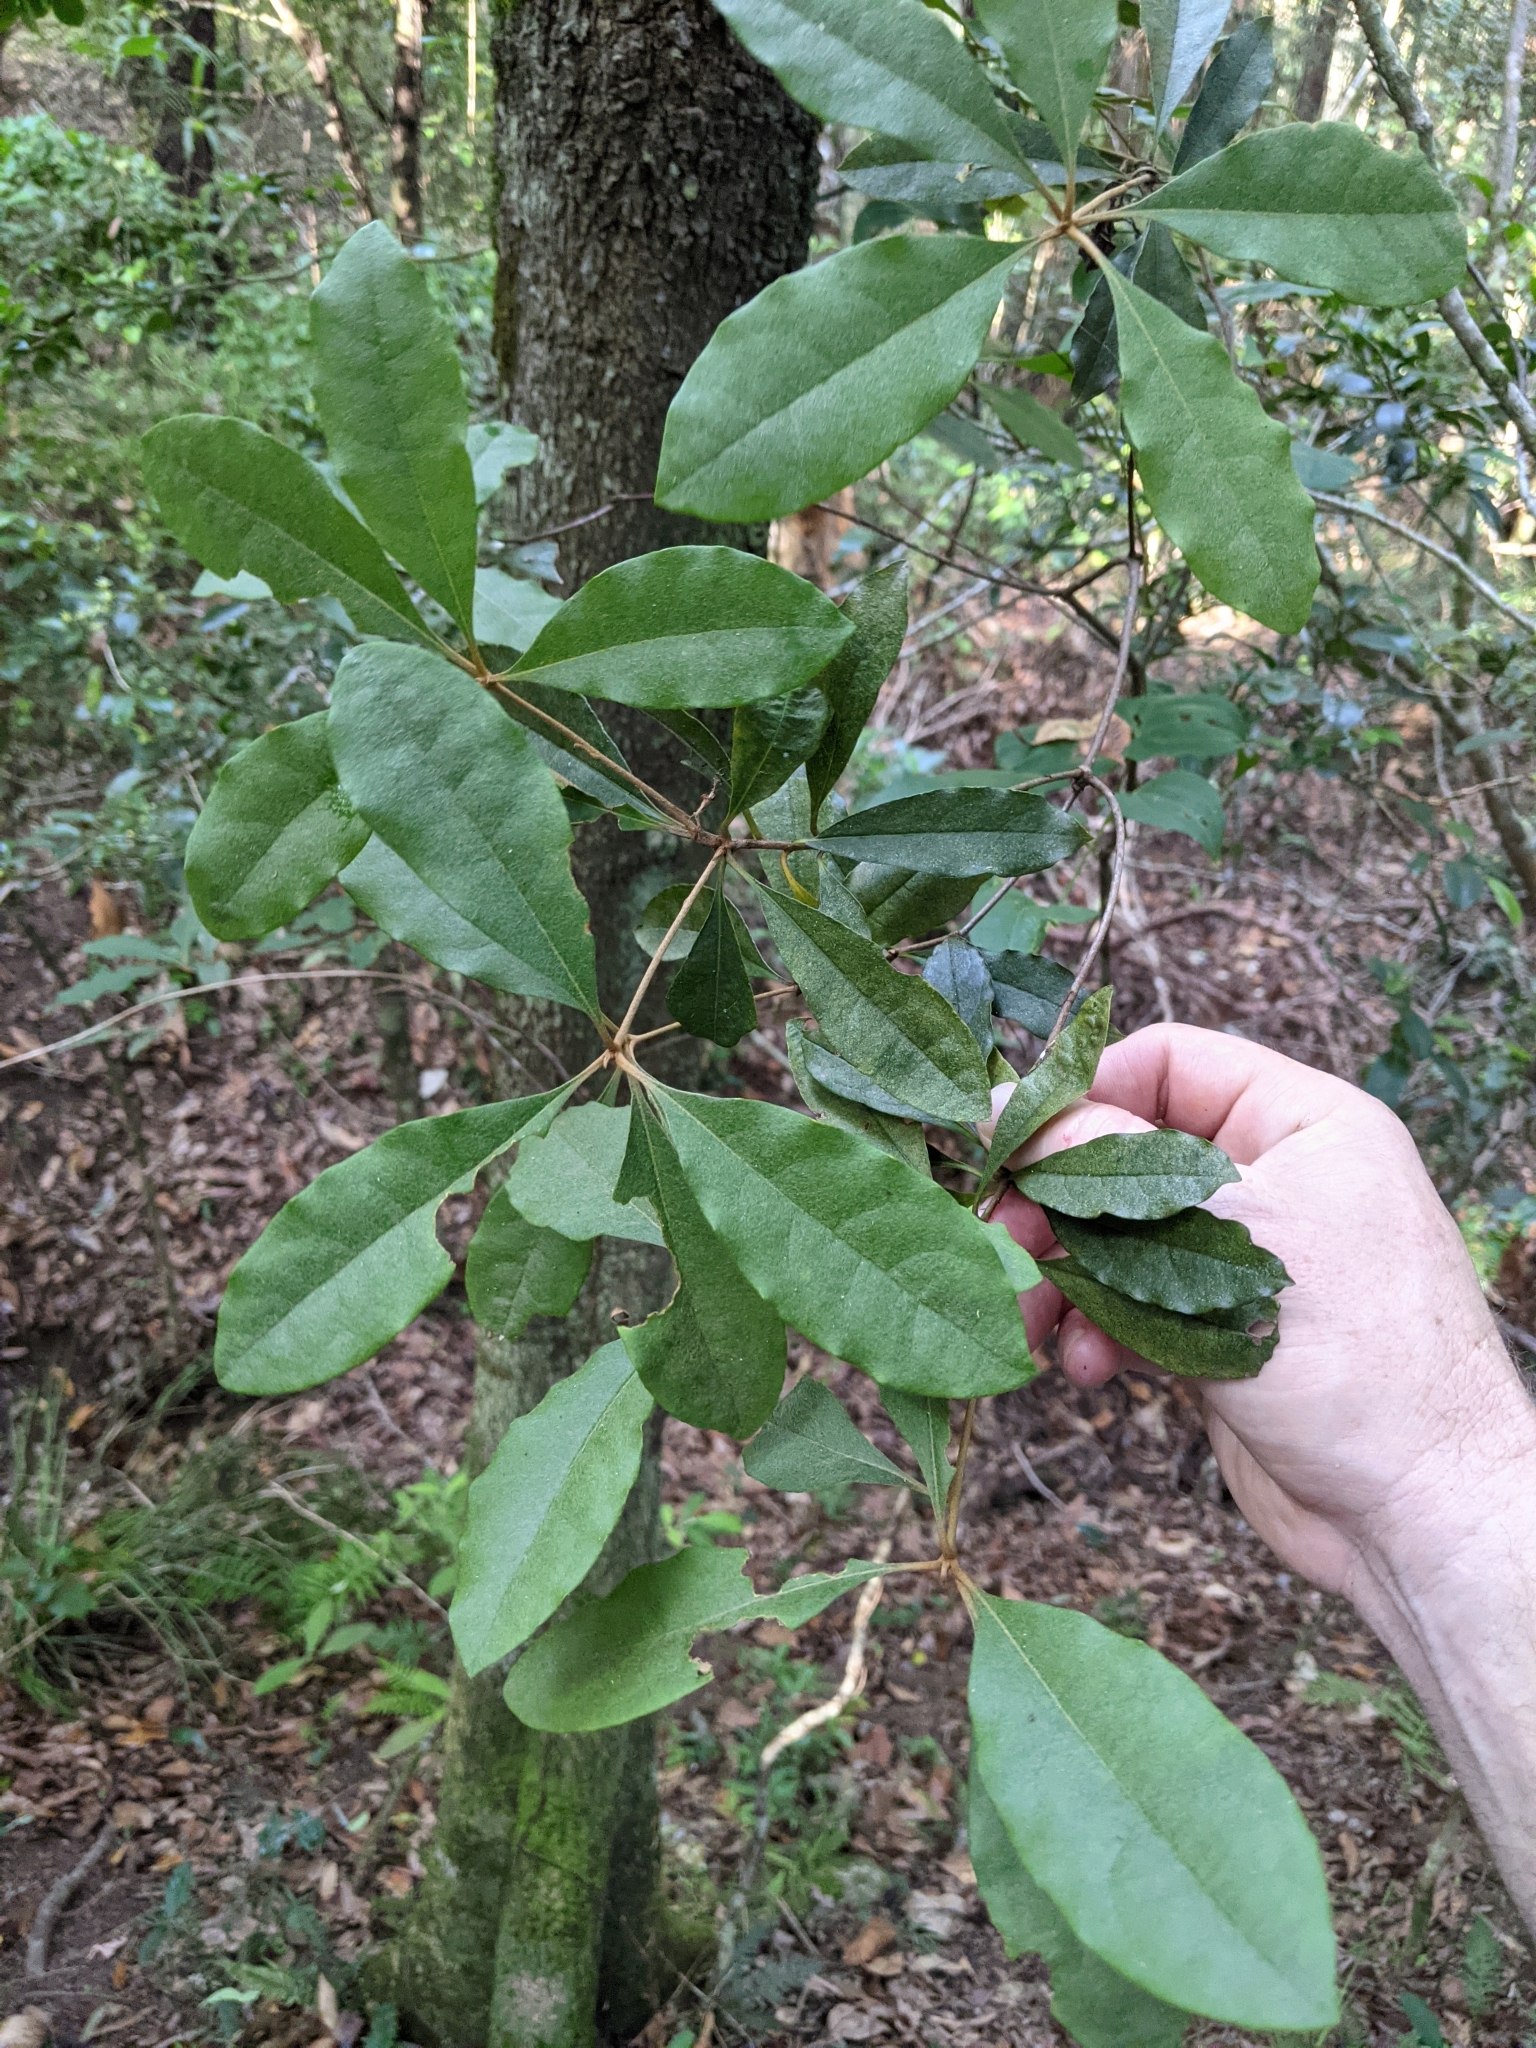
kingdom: Plantae
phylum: Tracheophyta
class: Magnoliopsida
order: Apiales
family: Pittosporaceae
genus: Pittosporum
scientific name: Pittosporum revolutum
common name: Brisbane-laurel
